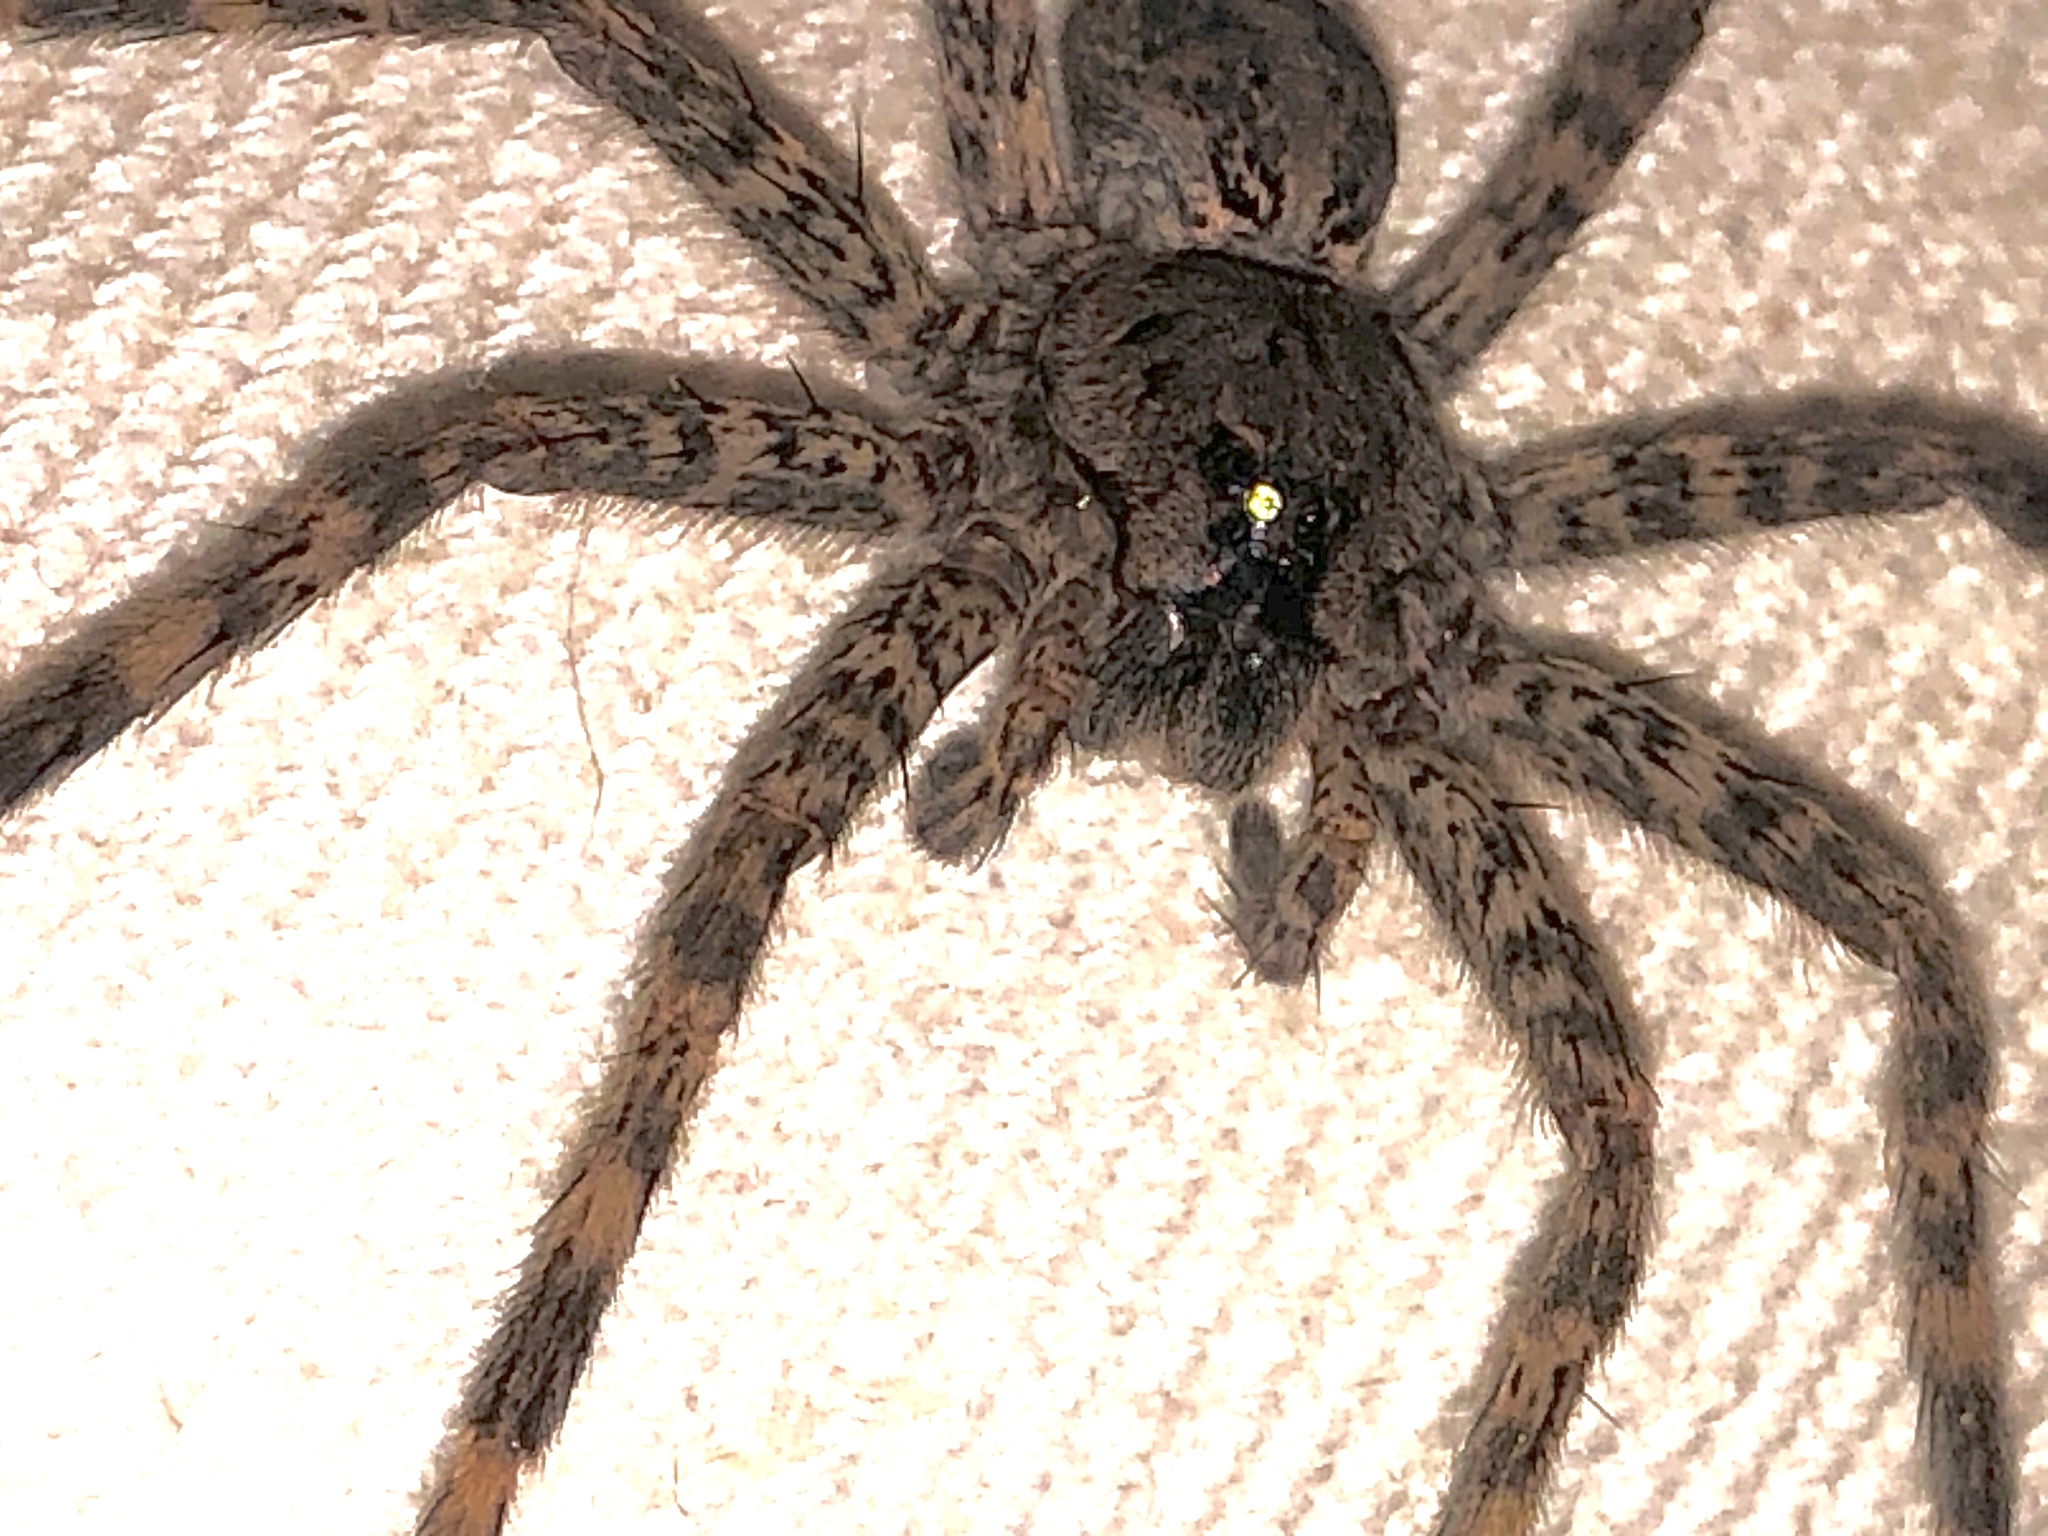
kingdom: Animalia
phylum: Arthropoda
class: Arachnida
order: Araneae
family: Pisauridae
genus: Dolomedes
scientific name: Dolomedes tenebrosus
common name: Dark fishing spider
